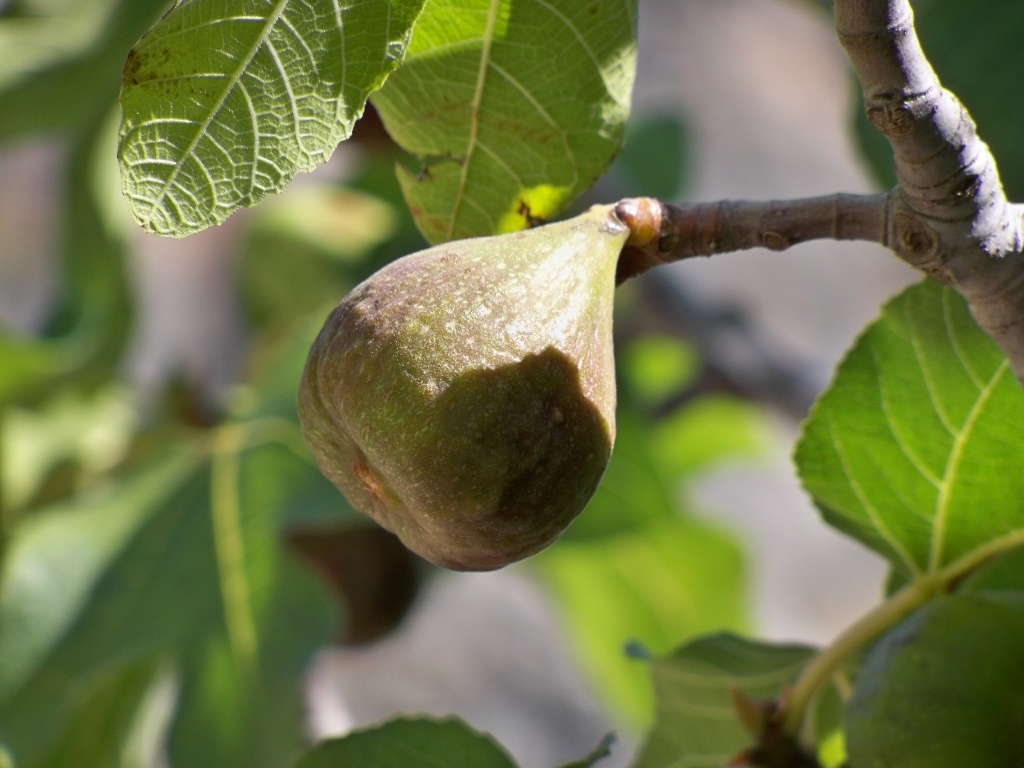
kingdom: Plantae
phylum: Tracheophyta
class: Magnoliopsida
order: Rosales
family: Moraceae
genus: Ficus
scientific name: Ficus carica
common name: Fig
